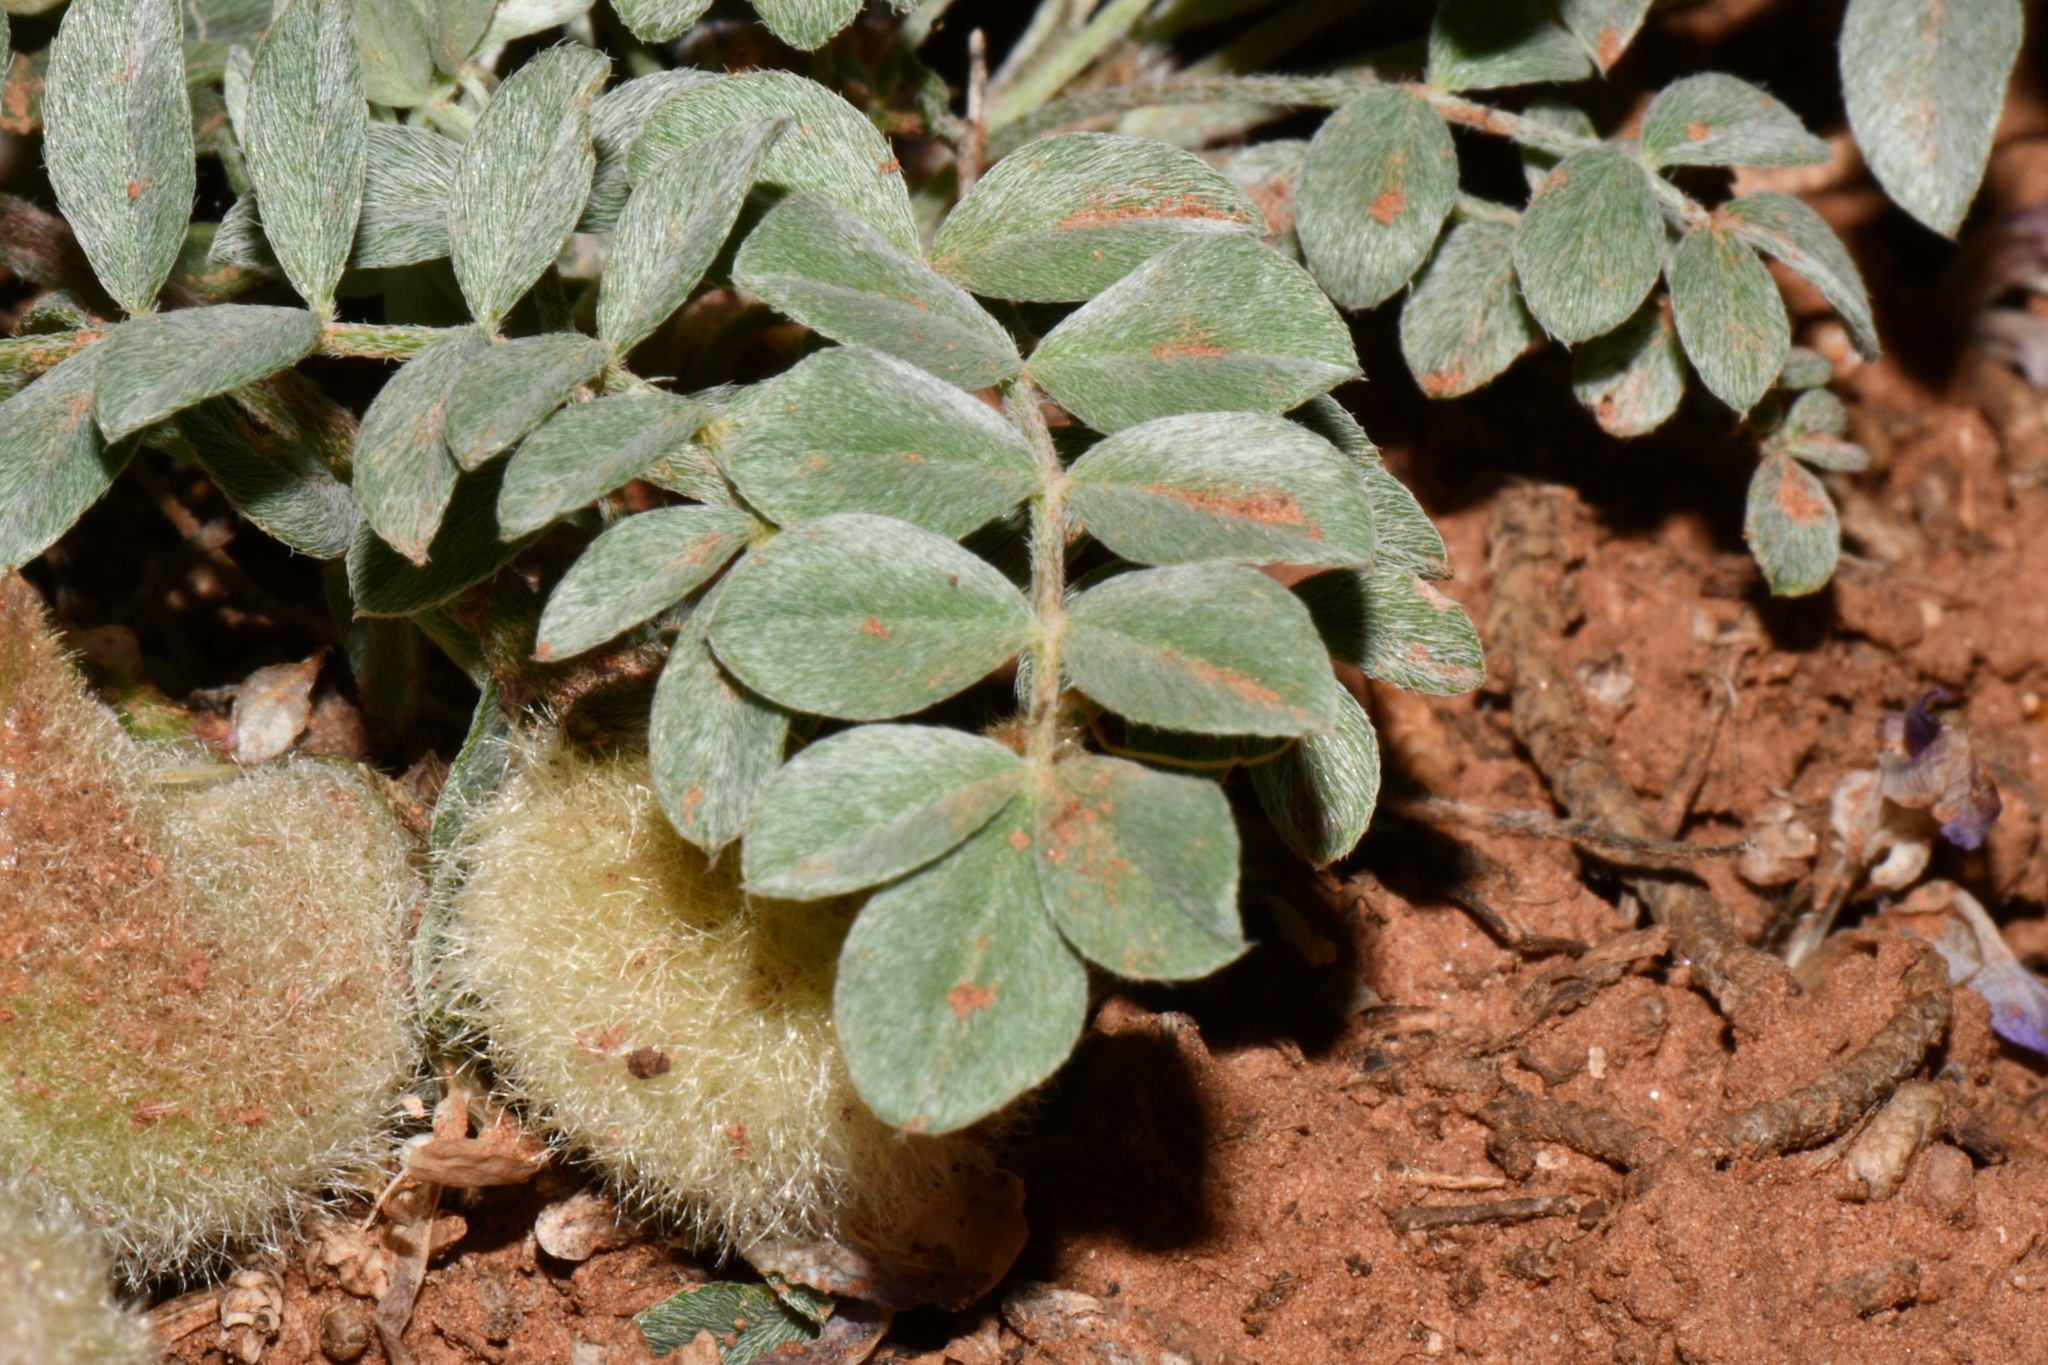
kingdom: Plantae
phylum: Tracheophyta
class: Magnoliopsida
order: Fabales
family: Fabaceae
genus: Astragalus
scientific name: Astragalus concordius
